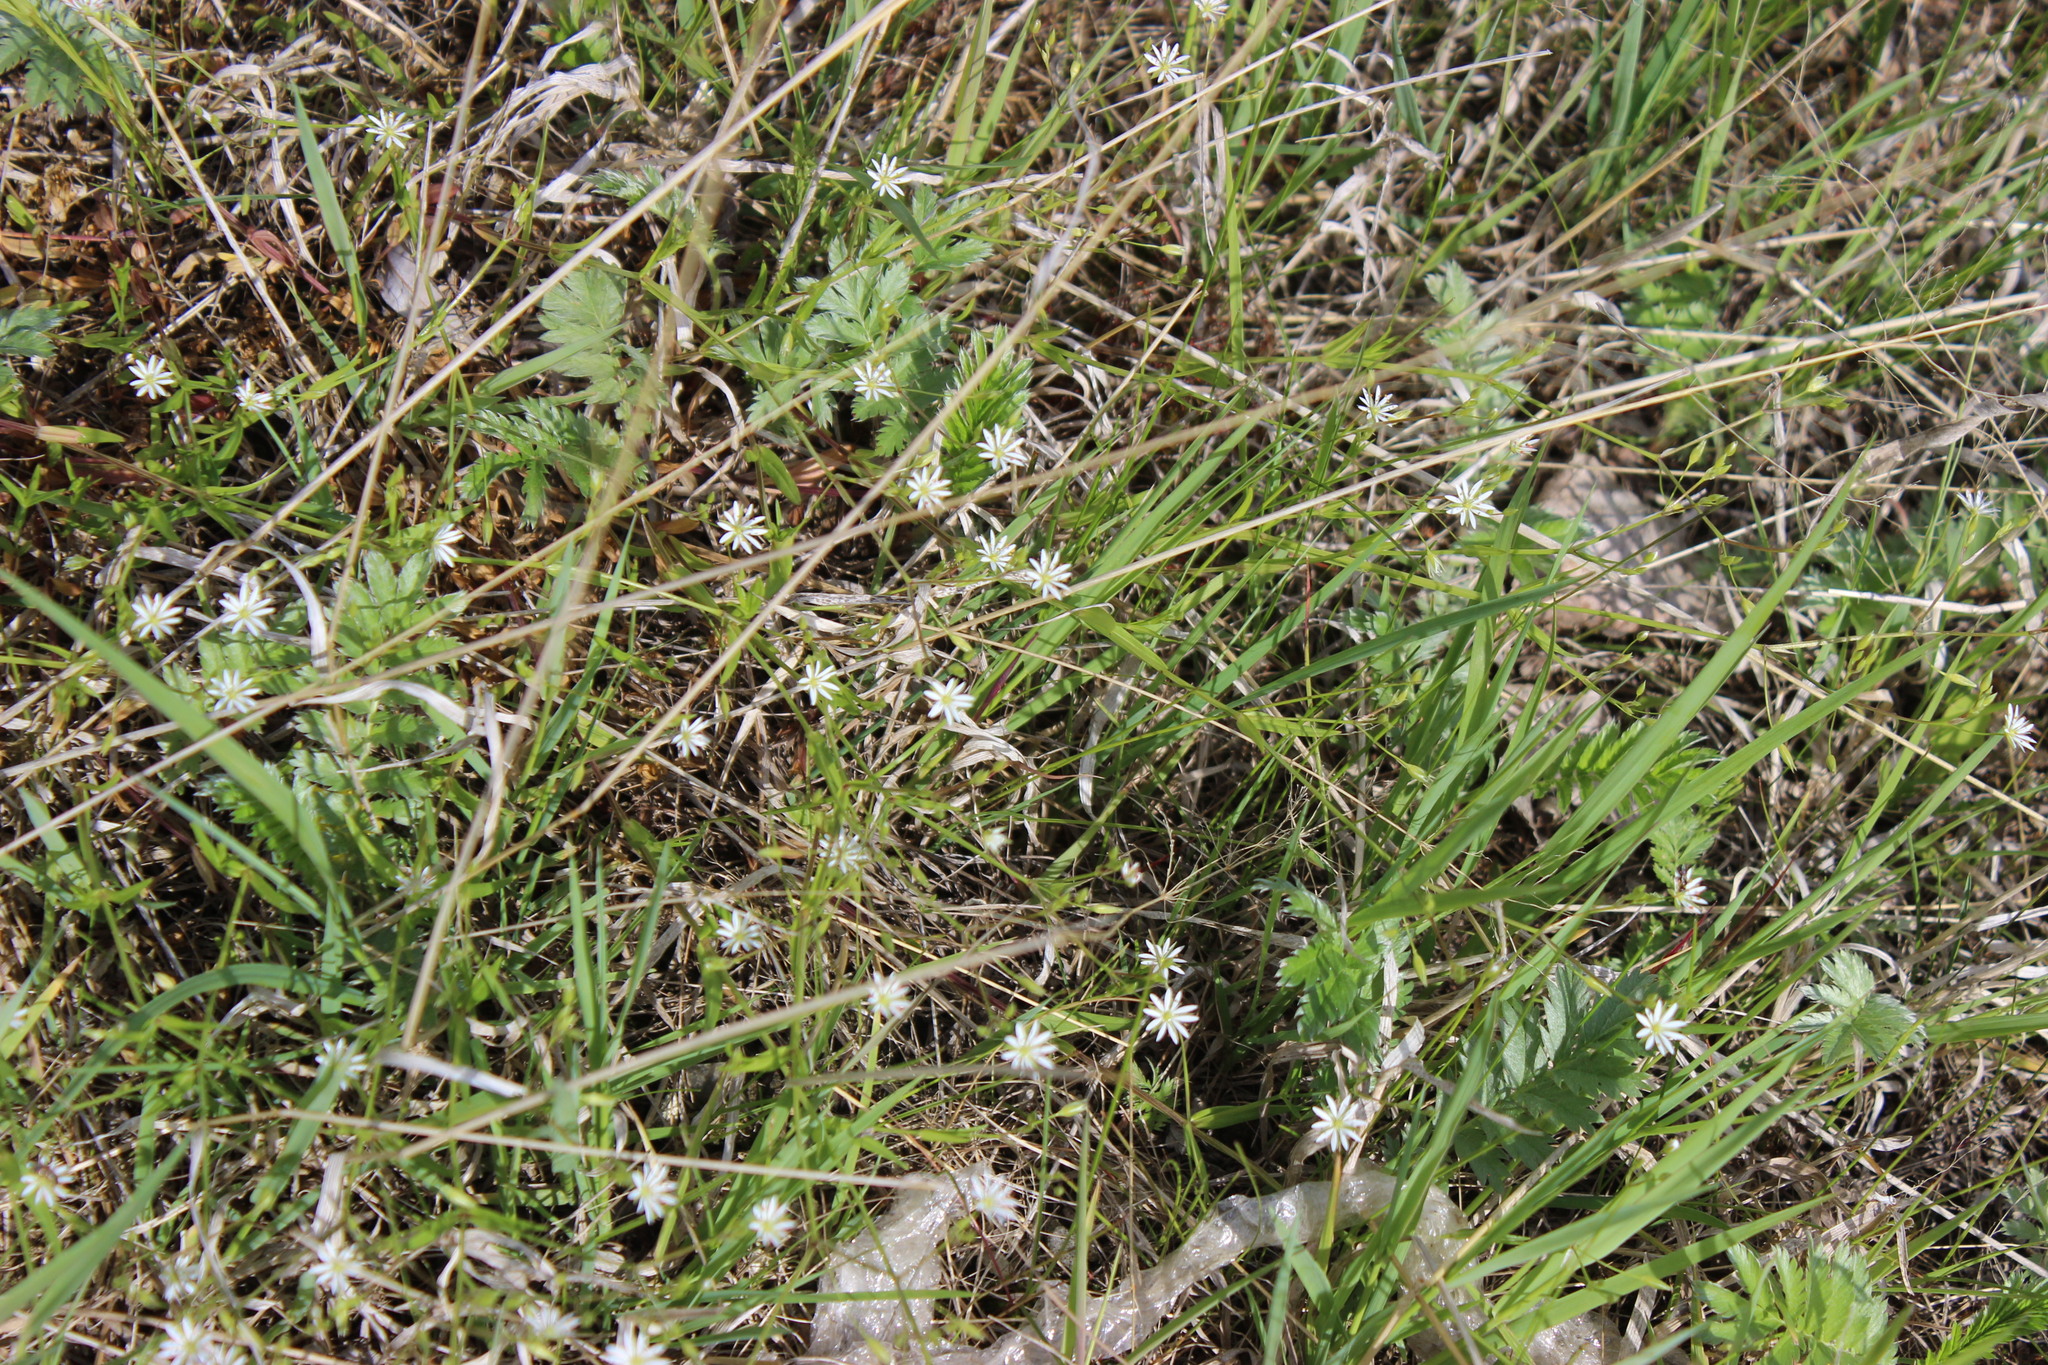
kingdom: Plantae
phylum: Tracheophyta
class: Magnoliopsida
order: Caryophyllales
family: Caryophyllaceae
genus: Stellaria
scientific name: Stellaria graminea
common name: Grass-like starwort
